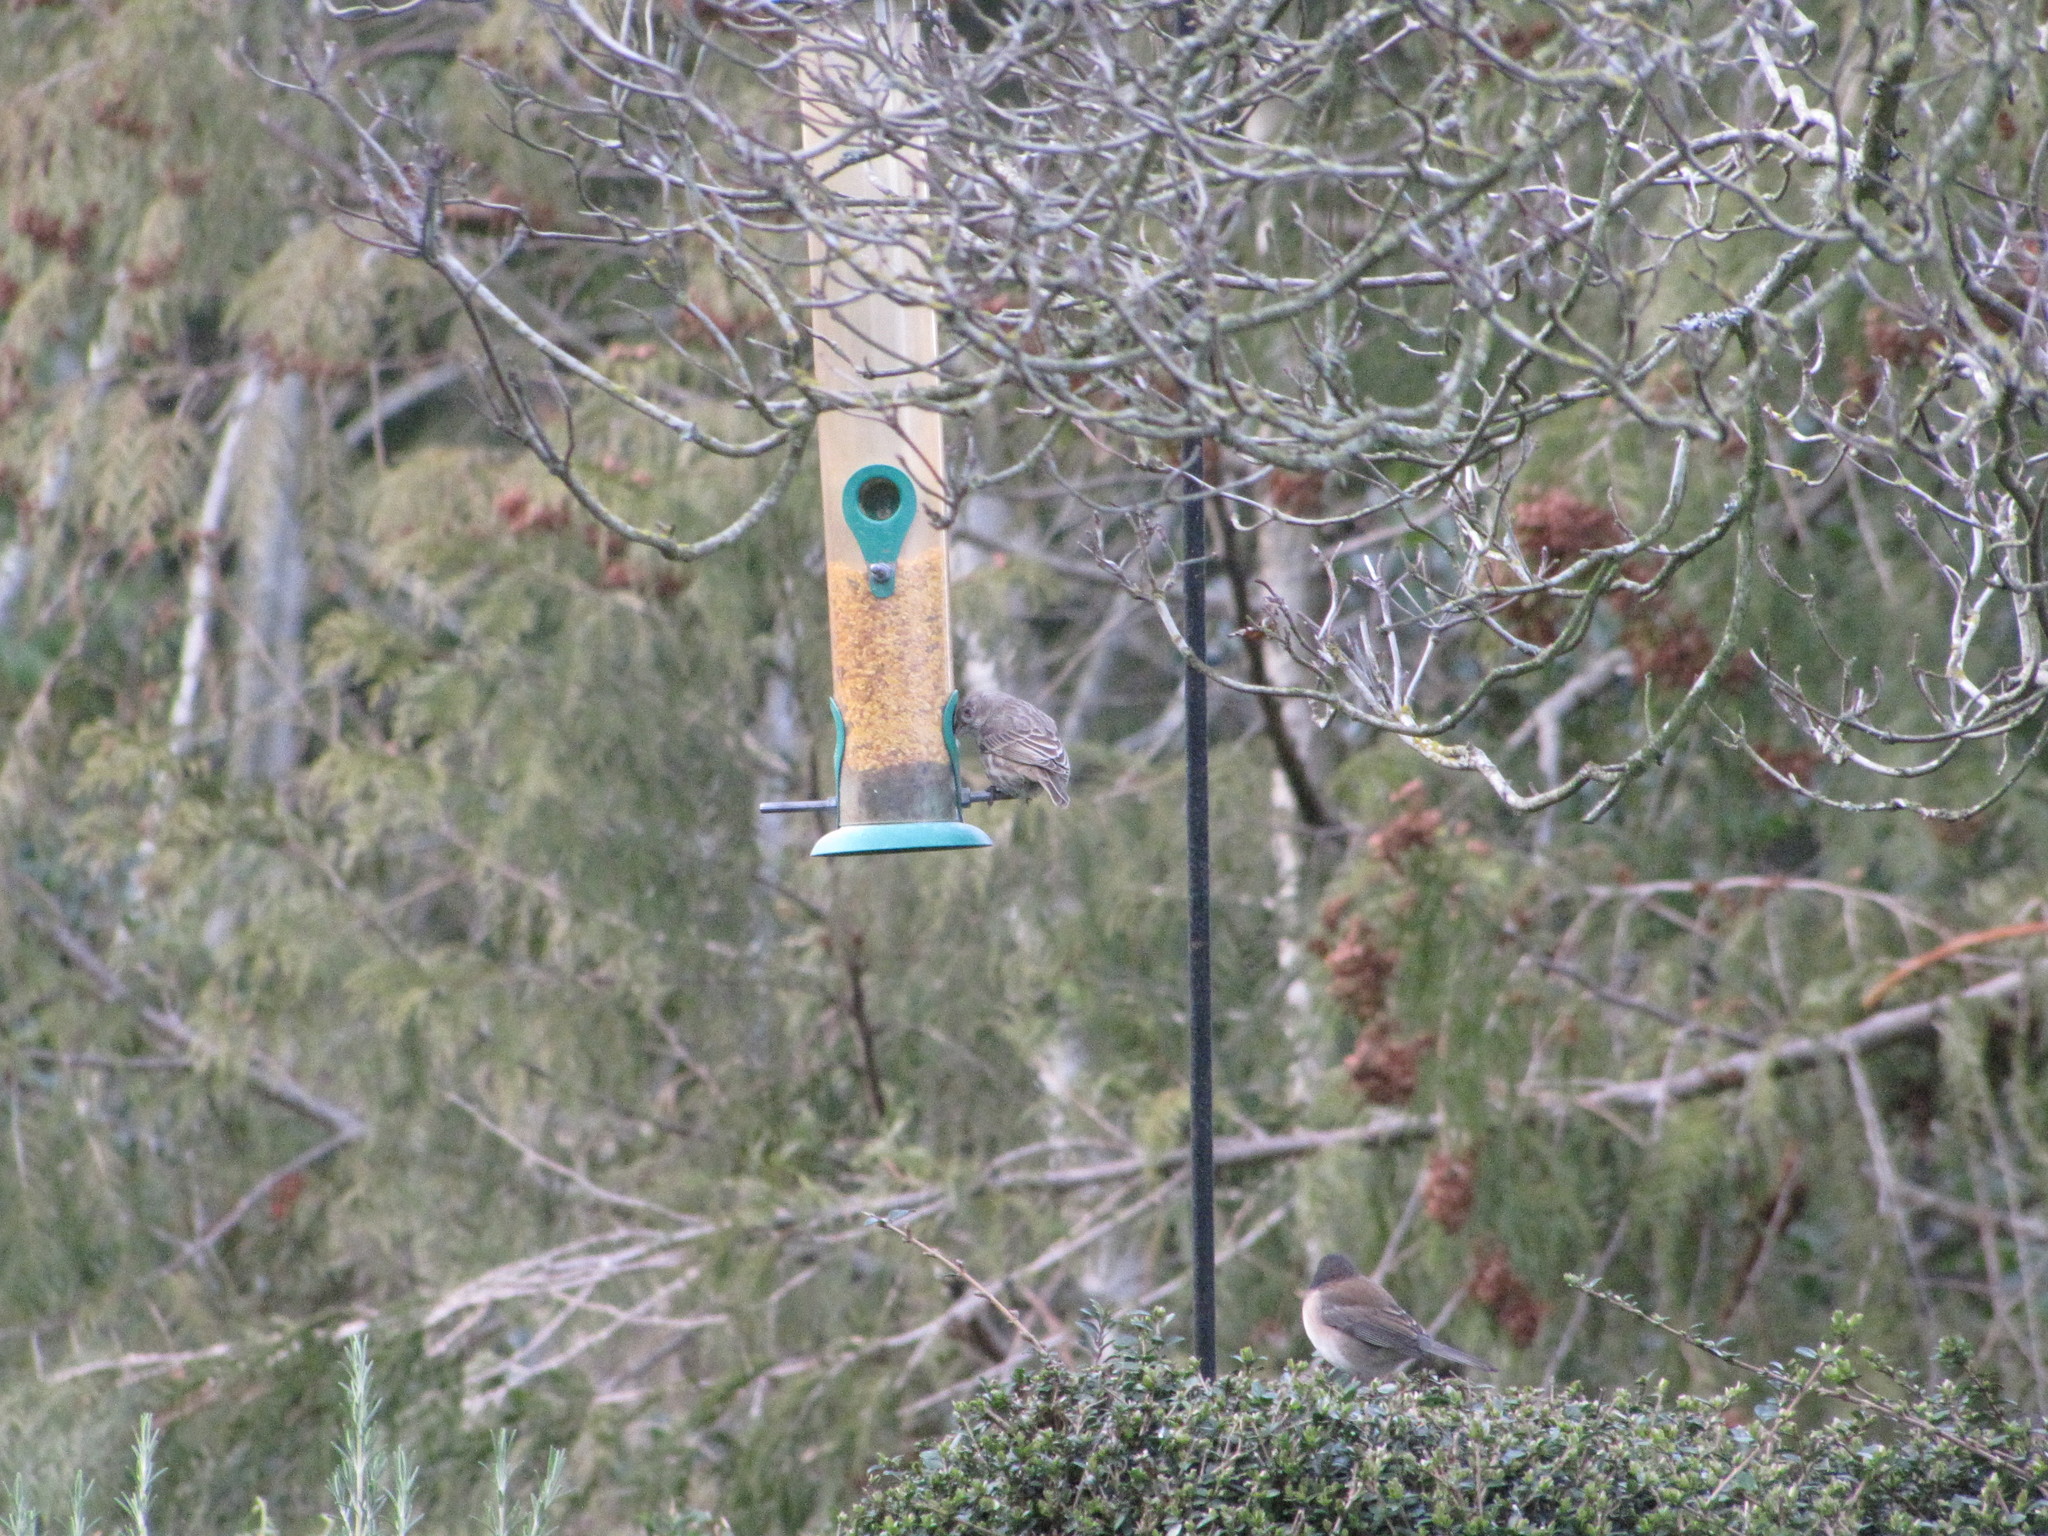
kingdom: Animalia
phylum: Chordata
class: Aves
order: Passeriformes
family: Fringillidae
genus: Haemorhous
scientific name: Haemorhous mexicanus
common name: House finch
